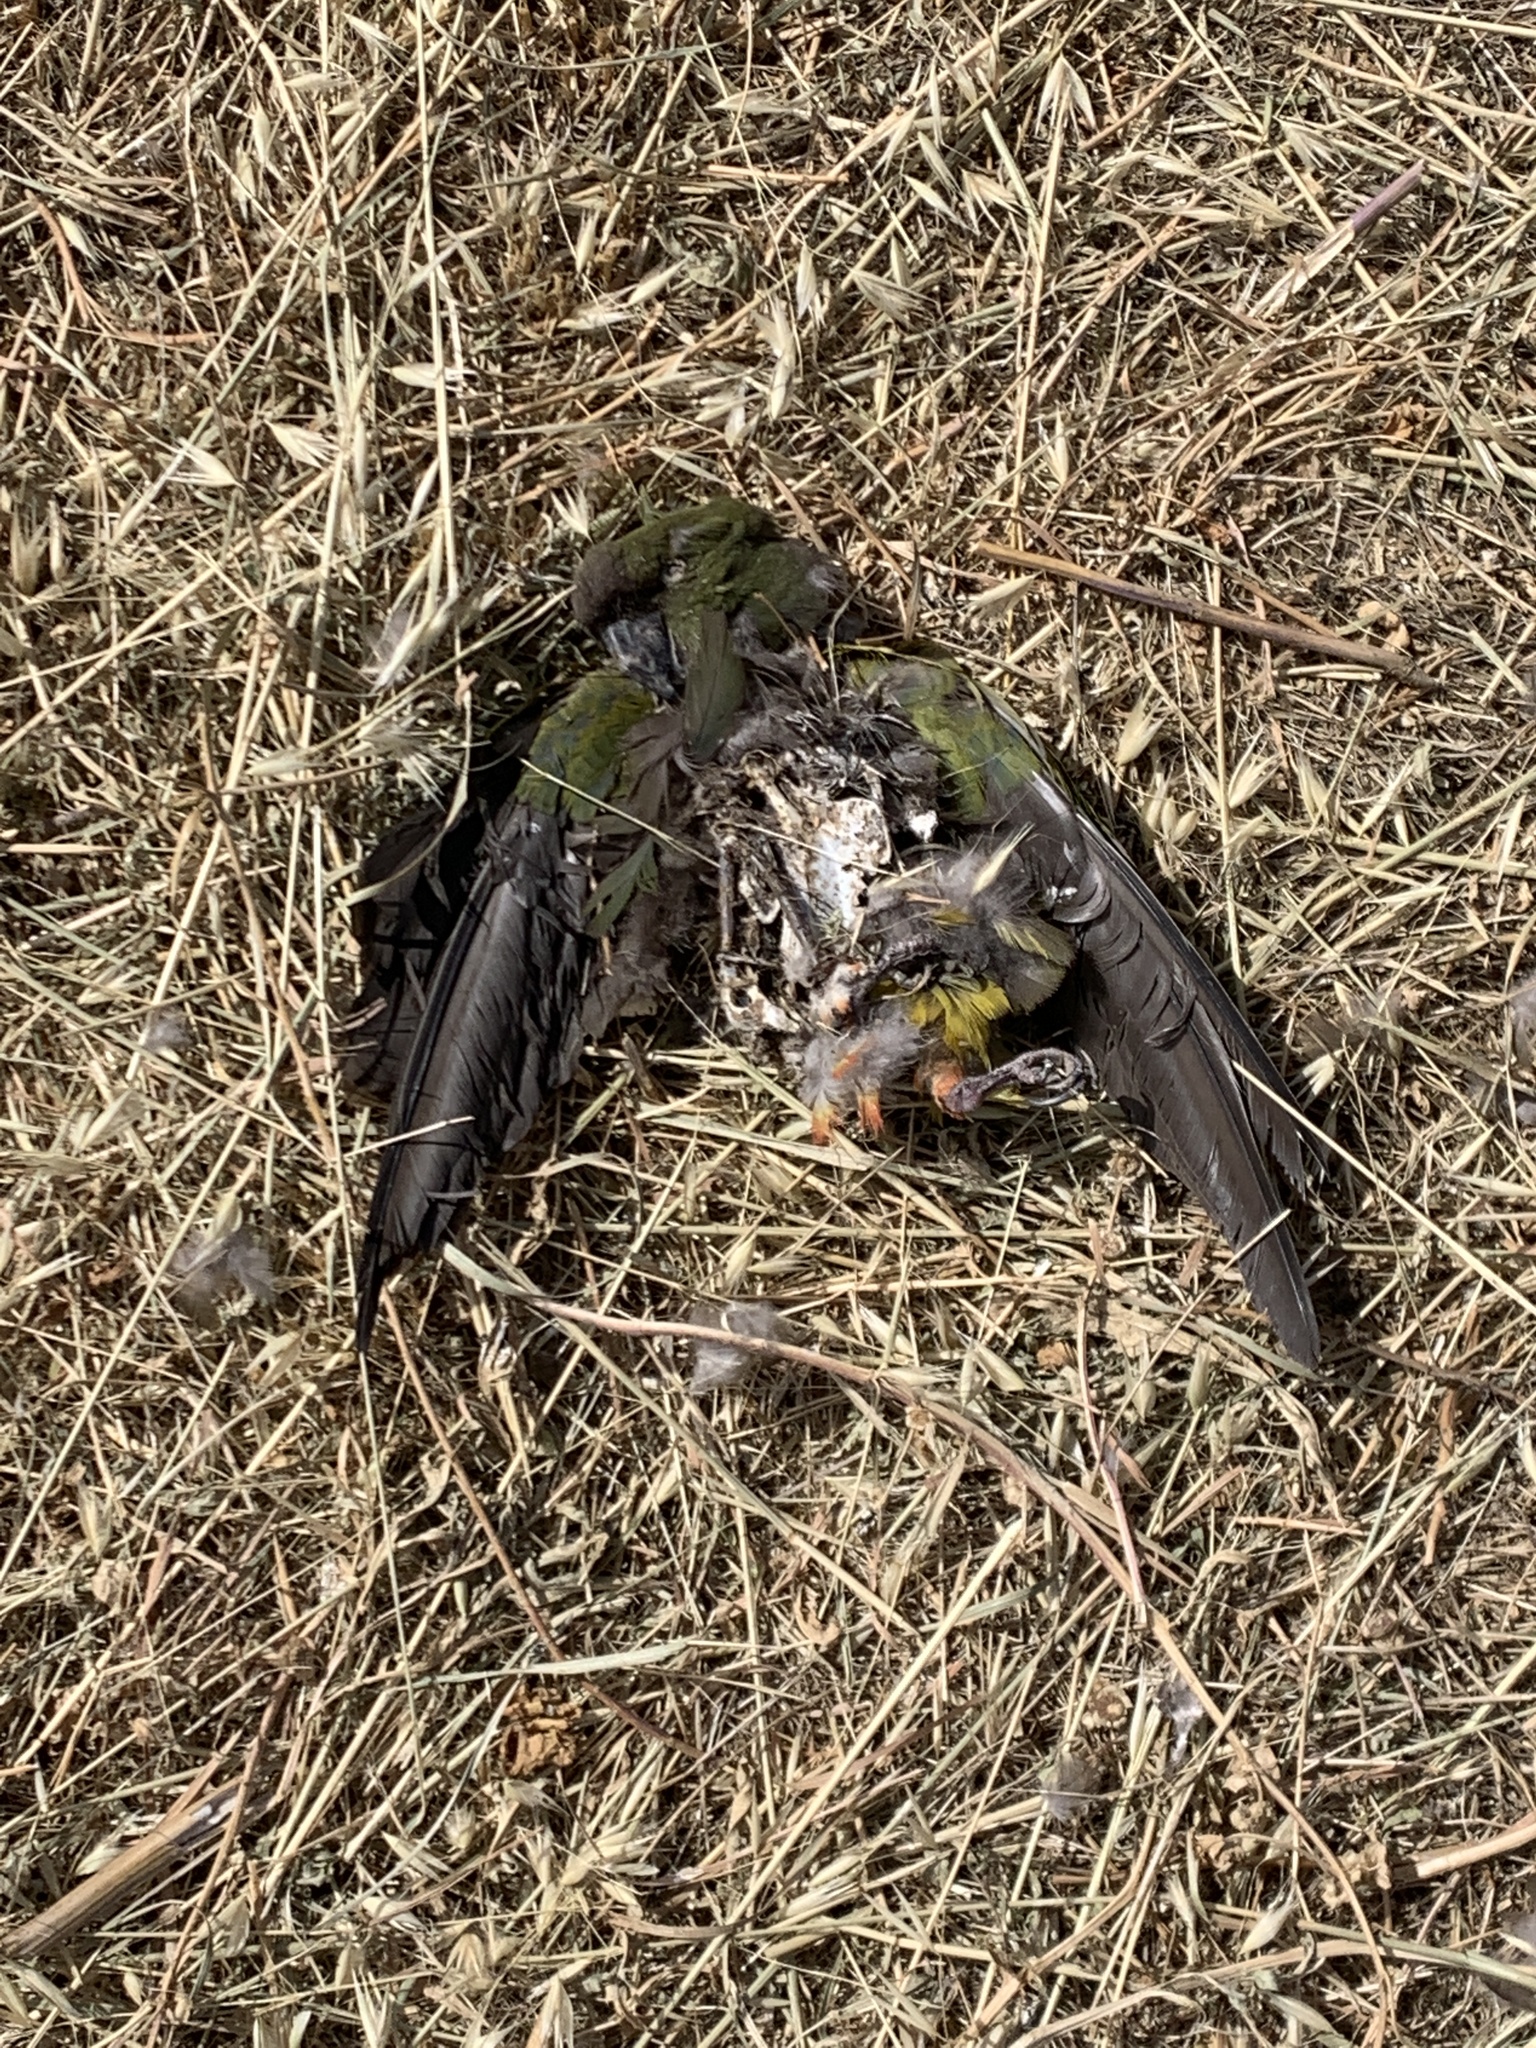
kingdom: Animalia
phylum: Chordata
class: Aves
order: Psittaciformes
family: Psittacidae
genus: Cyanoliseus
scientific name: Cyanoliseus patagonus
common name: Burrowing parrot
